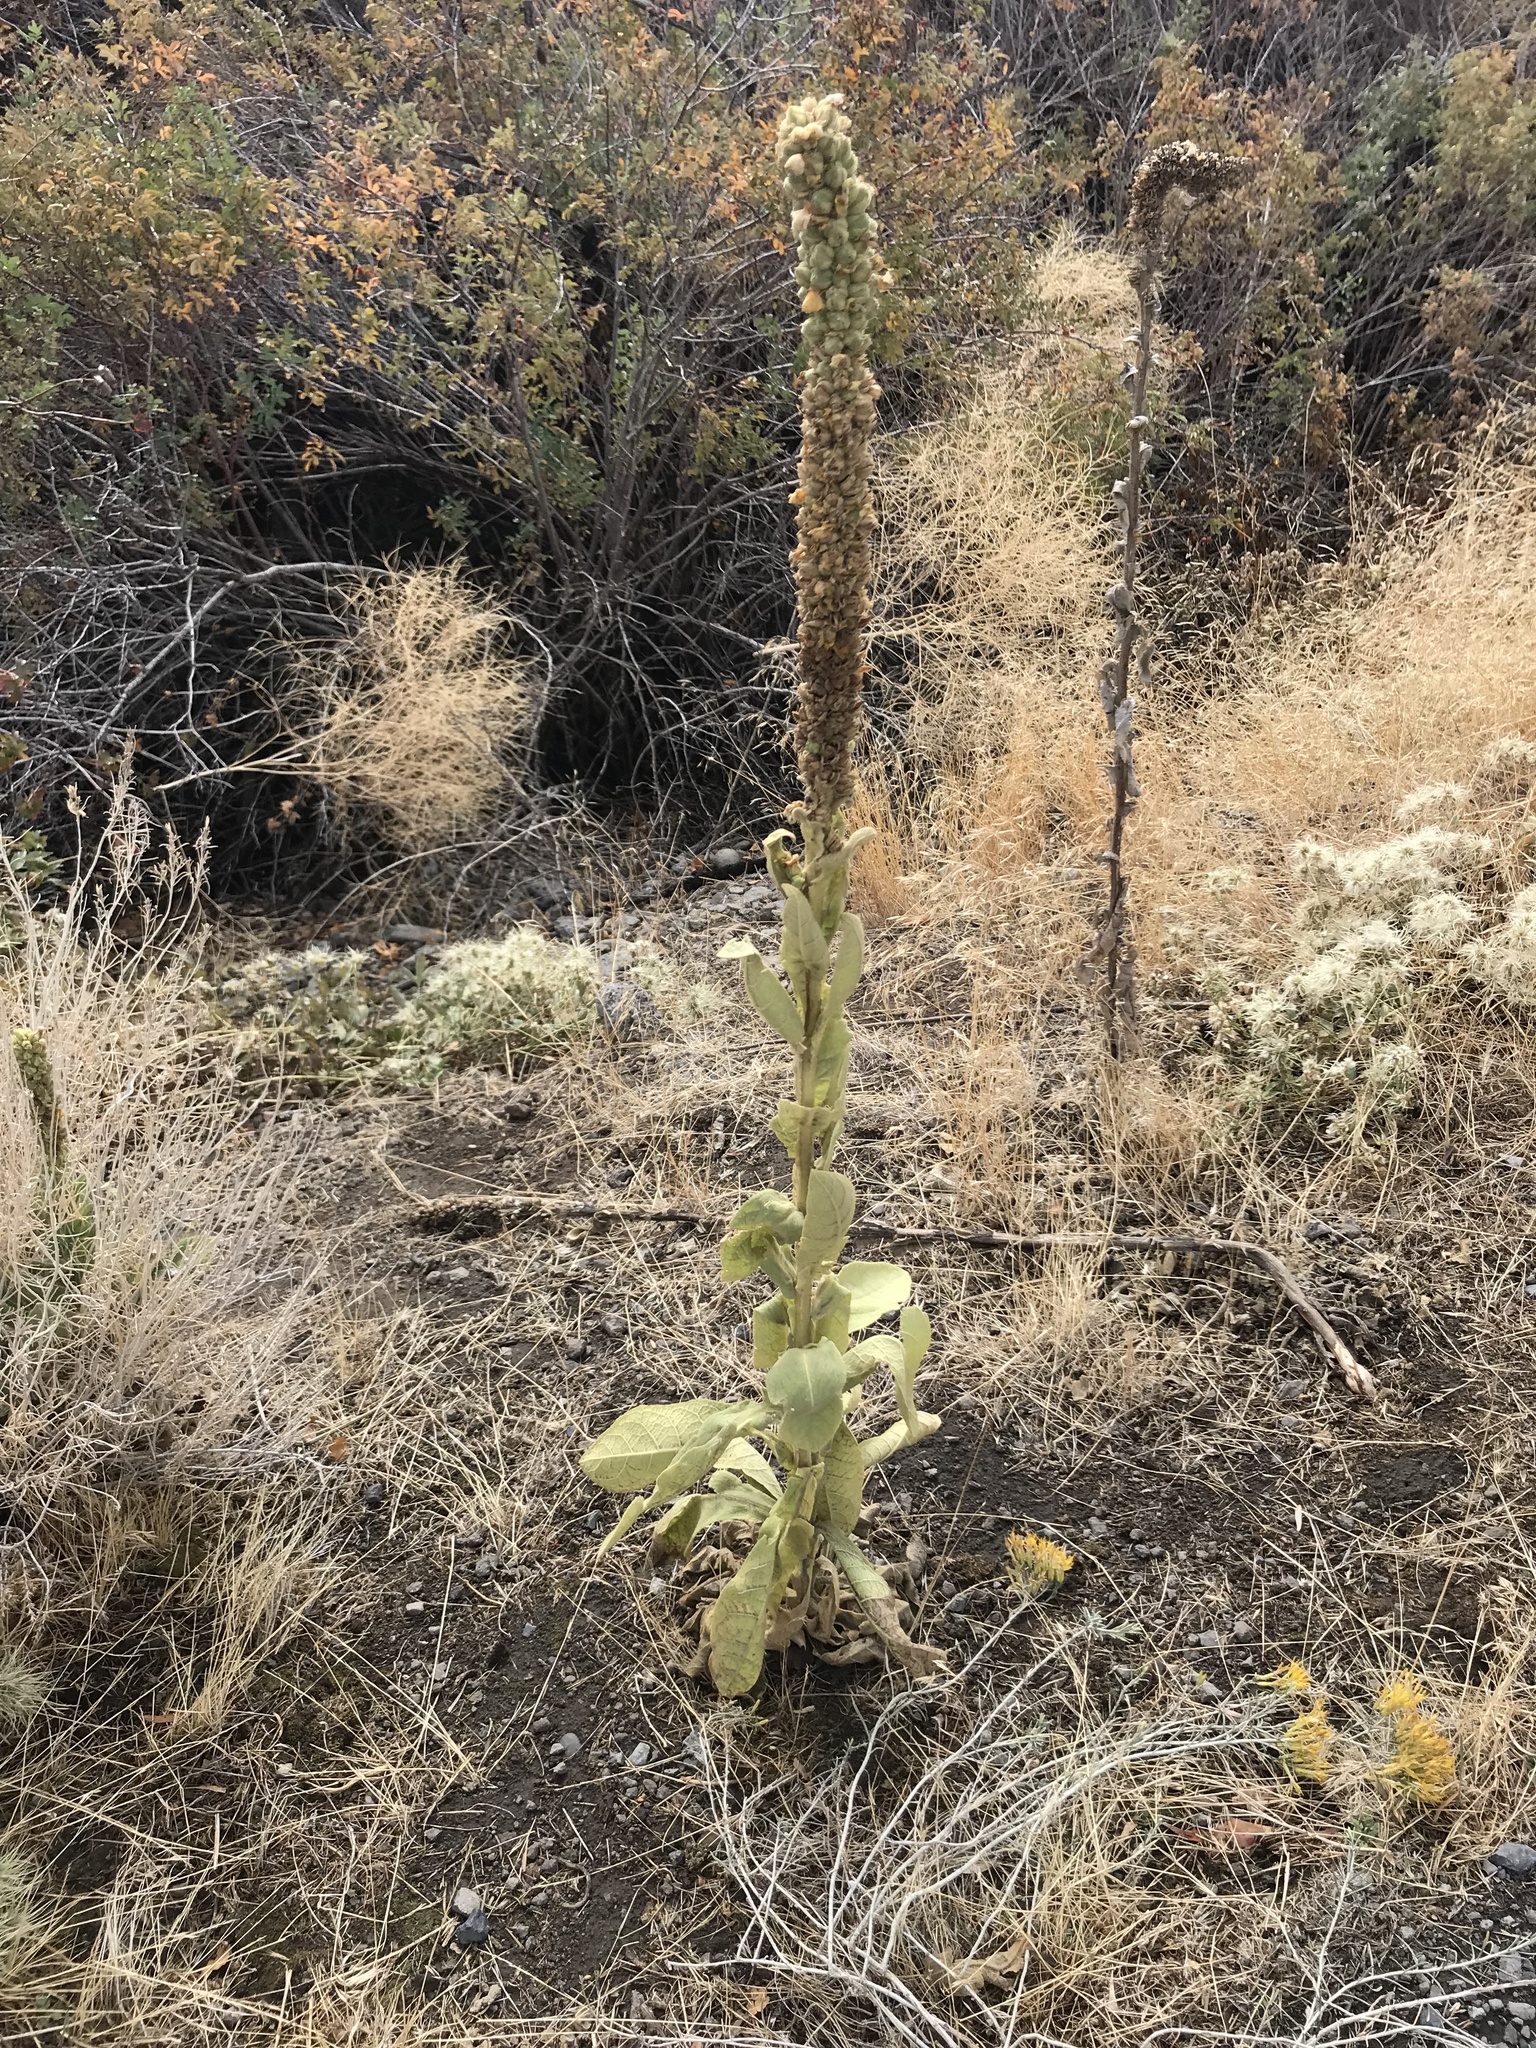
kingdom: Plantae
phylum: Tracheophyta
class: Magnoliopsida
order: Lamiales
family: Scrophulariaceae
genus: Verbascum
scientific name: Verbascum thapsus
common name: Common mullein
